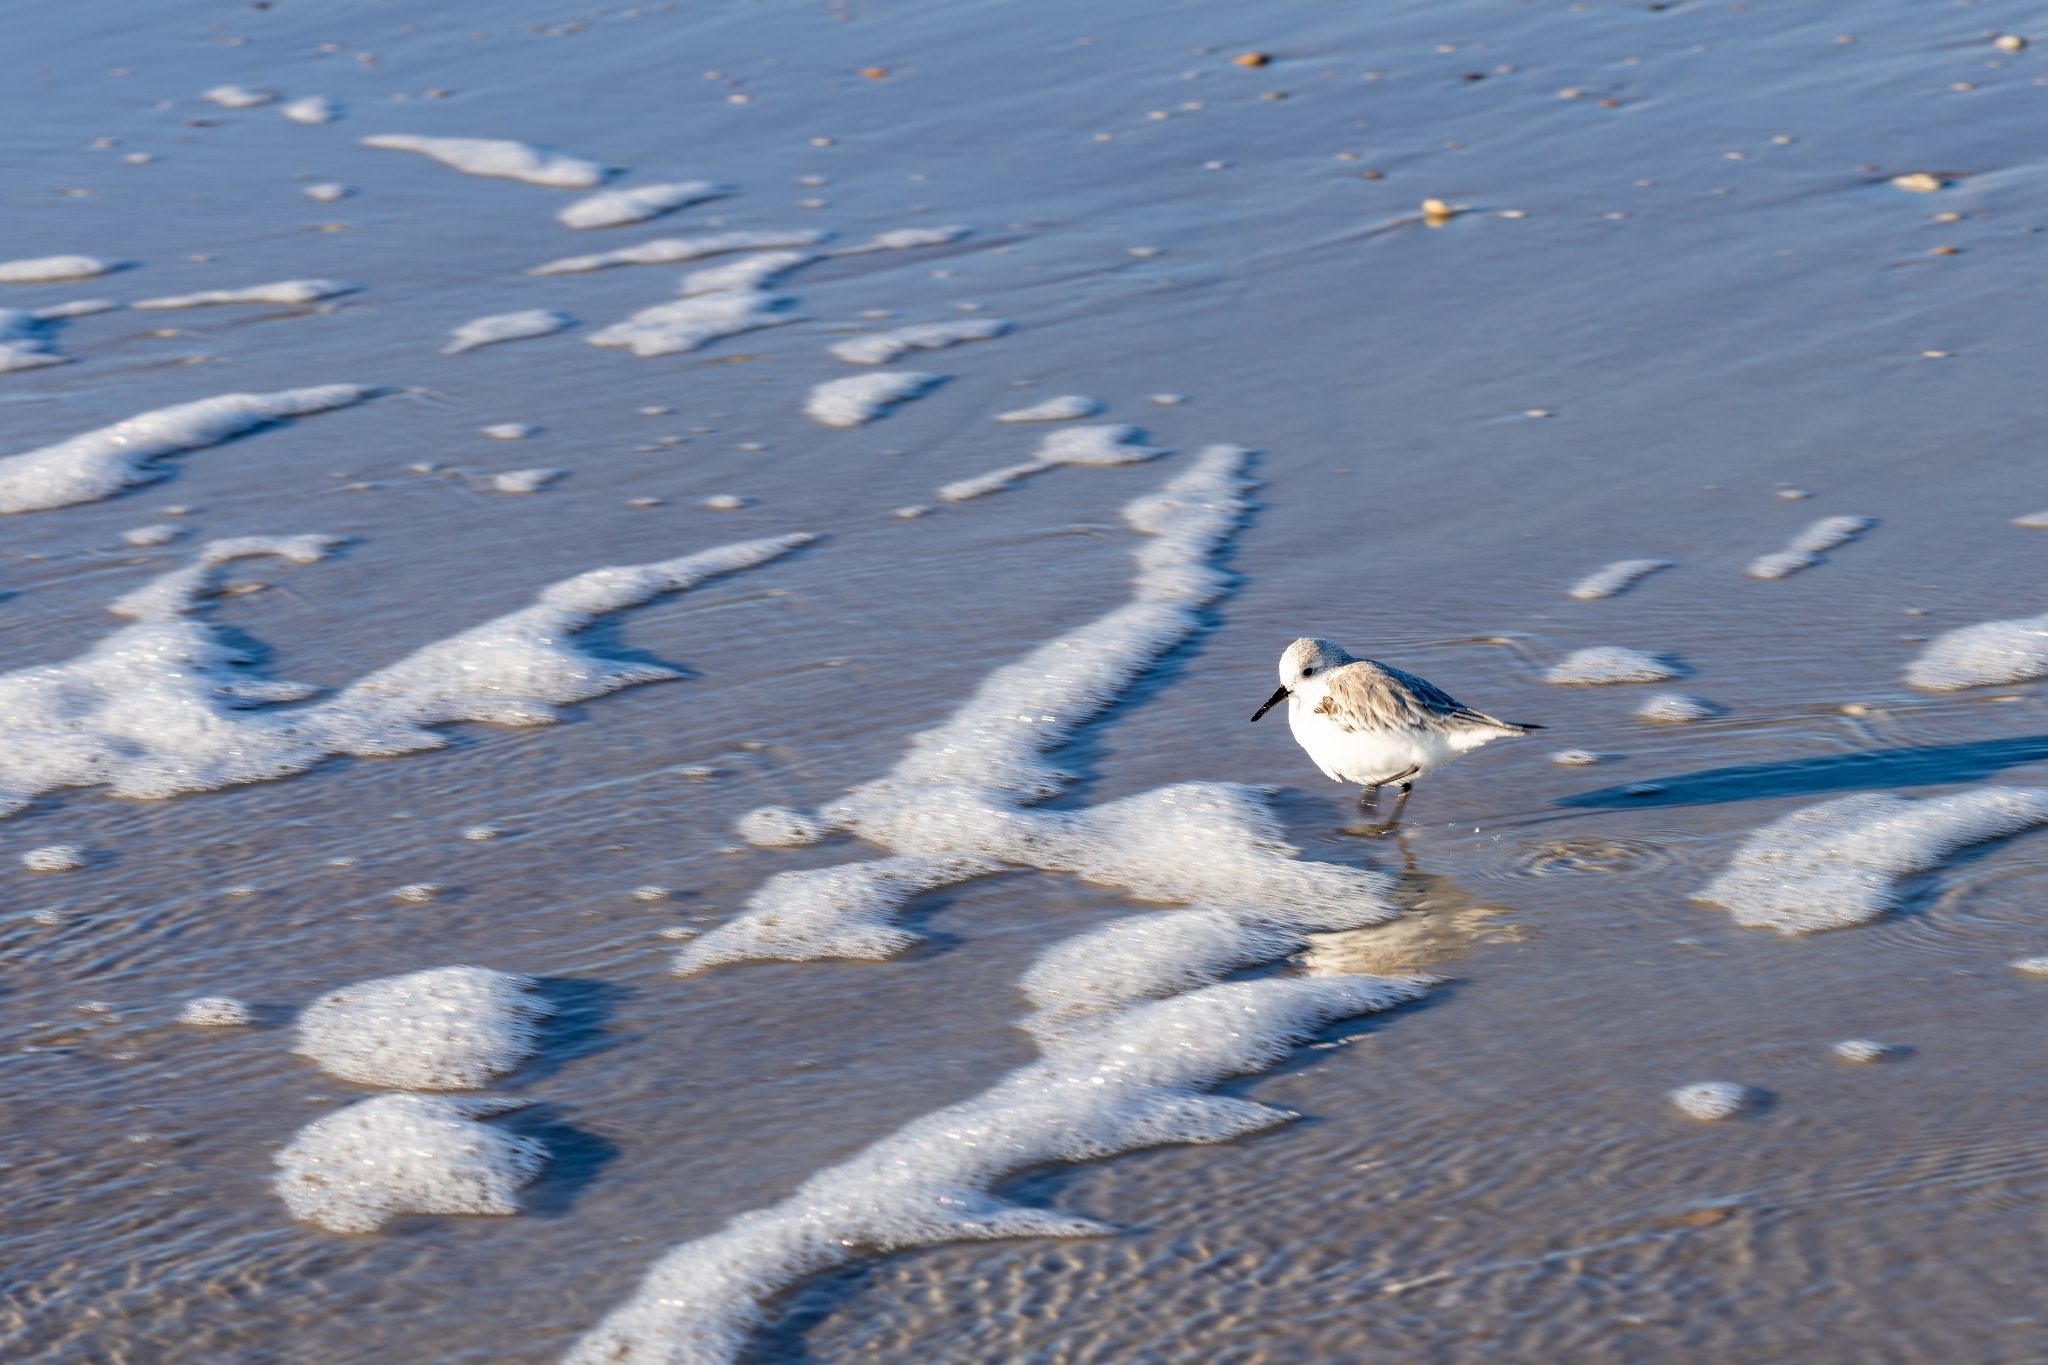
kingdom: Animalia
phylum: Chordata
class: Aves
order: Charadriiformes
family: Scolopacidae
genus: Calidris
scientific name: Calidris alba
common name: Sanderling
